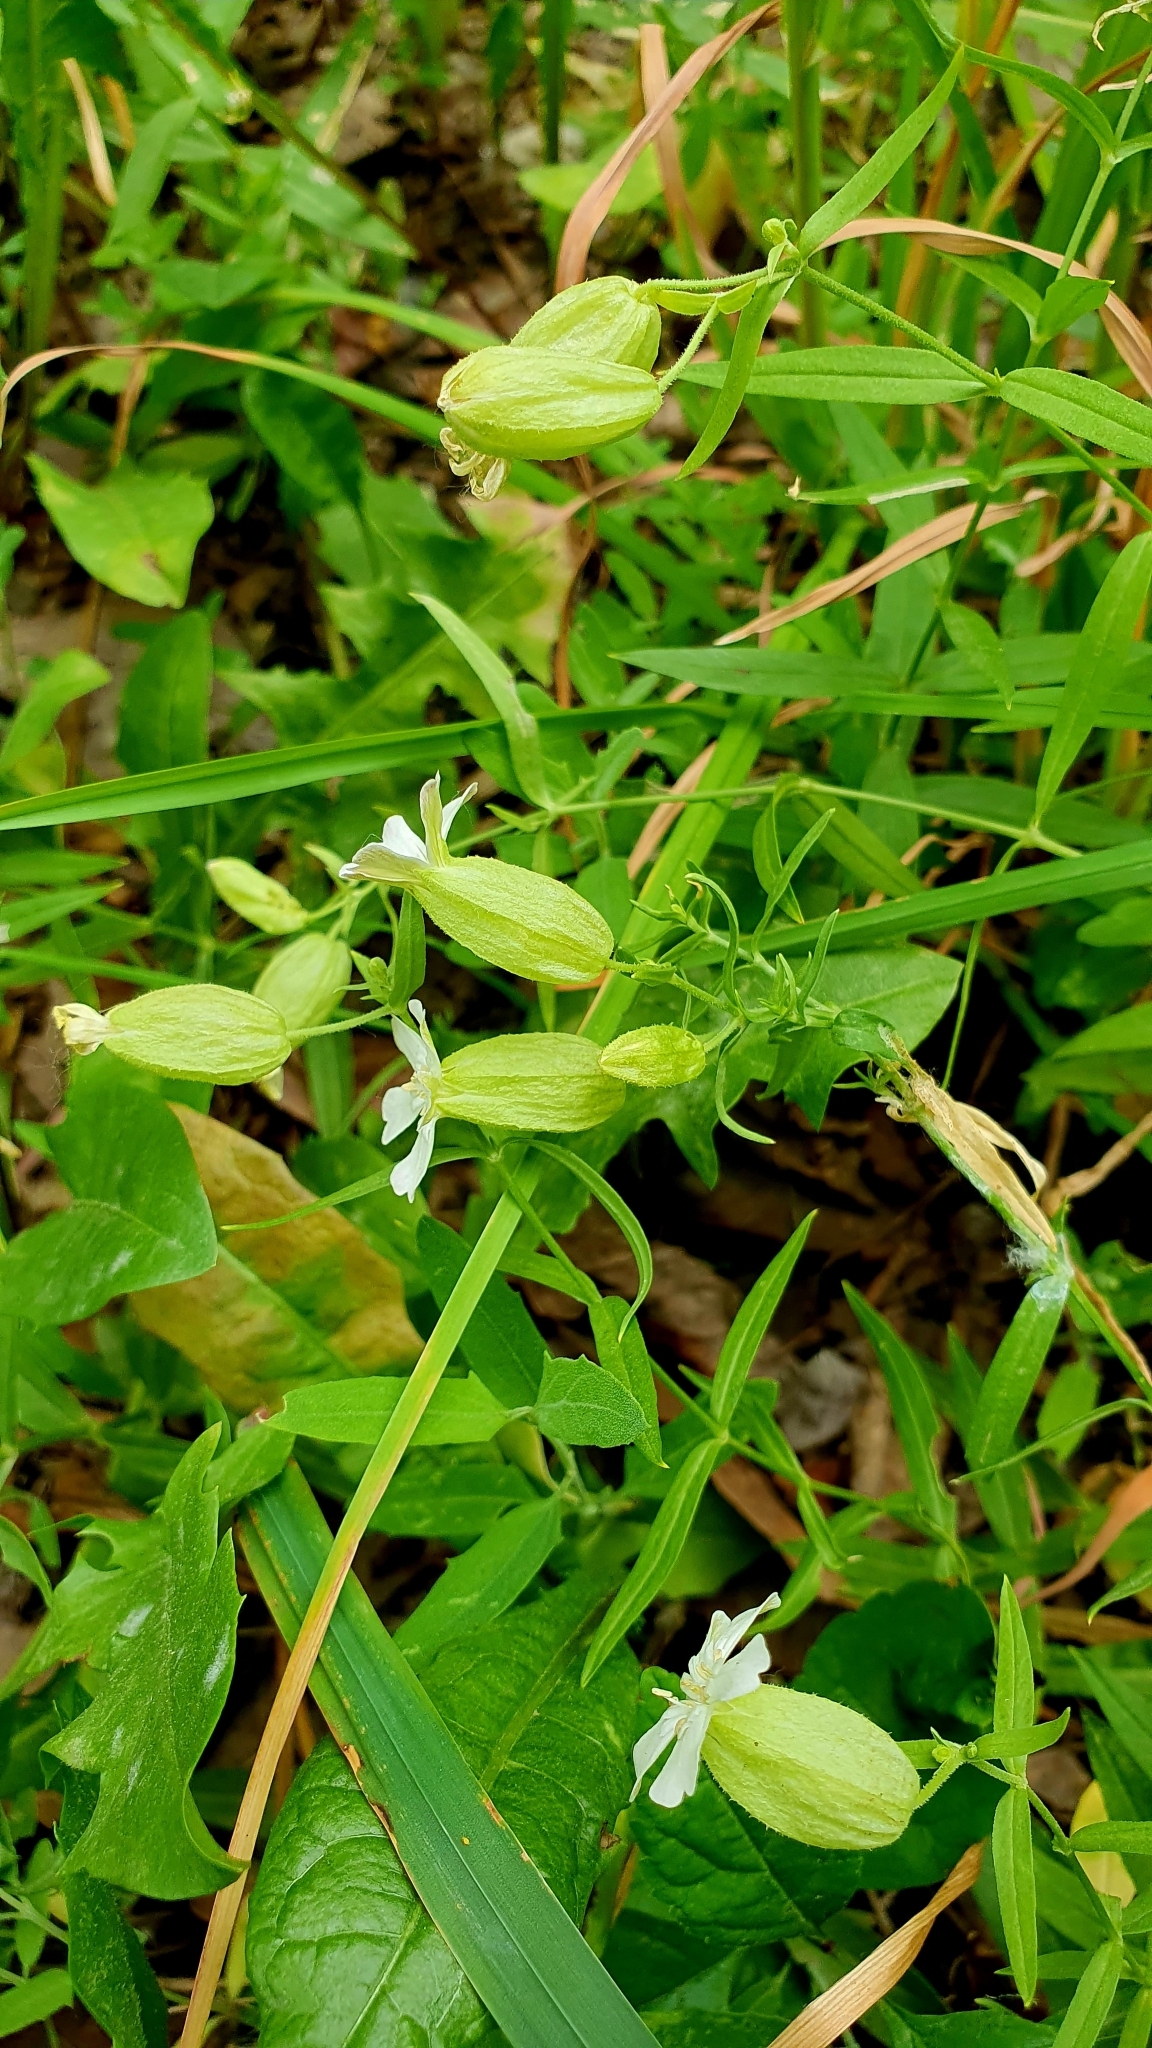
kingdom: Plantae
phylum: Tracheophyta
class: Magnoliopsida
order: Caryophyllales
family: Caryophyllaceae
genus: Silene
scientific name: Silene procumbens
